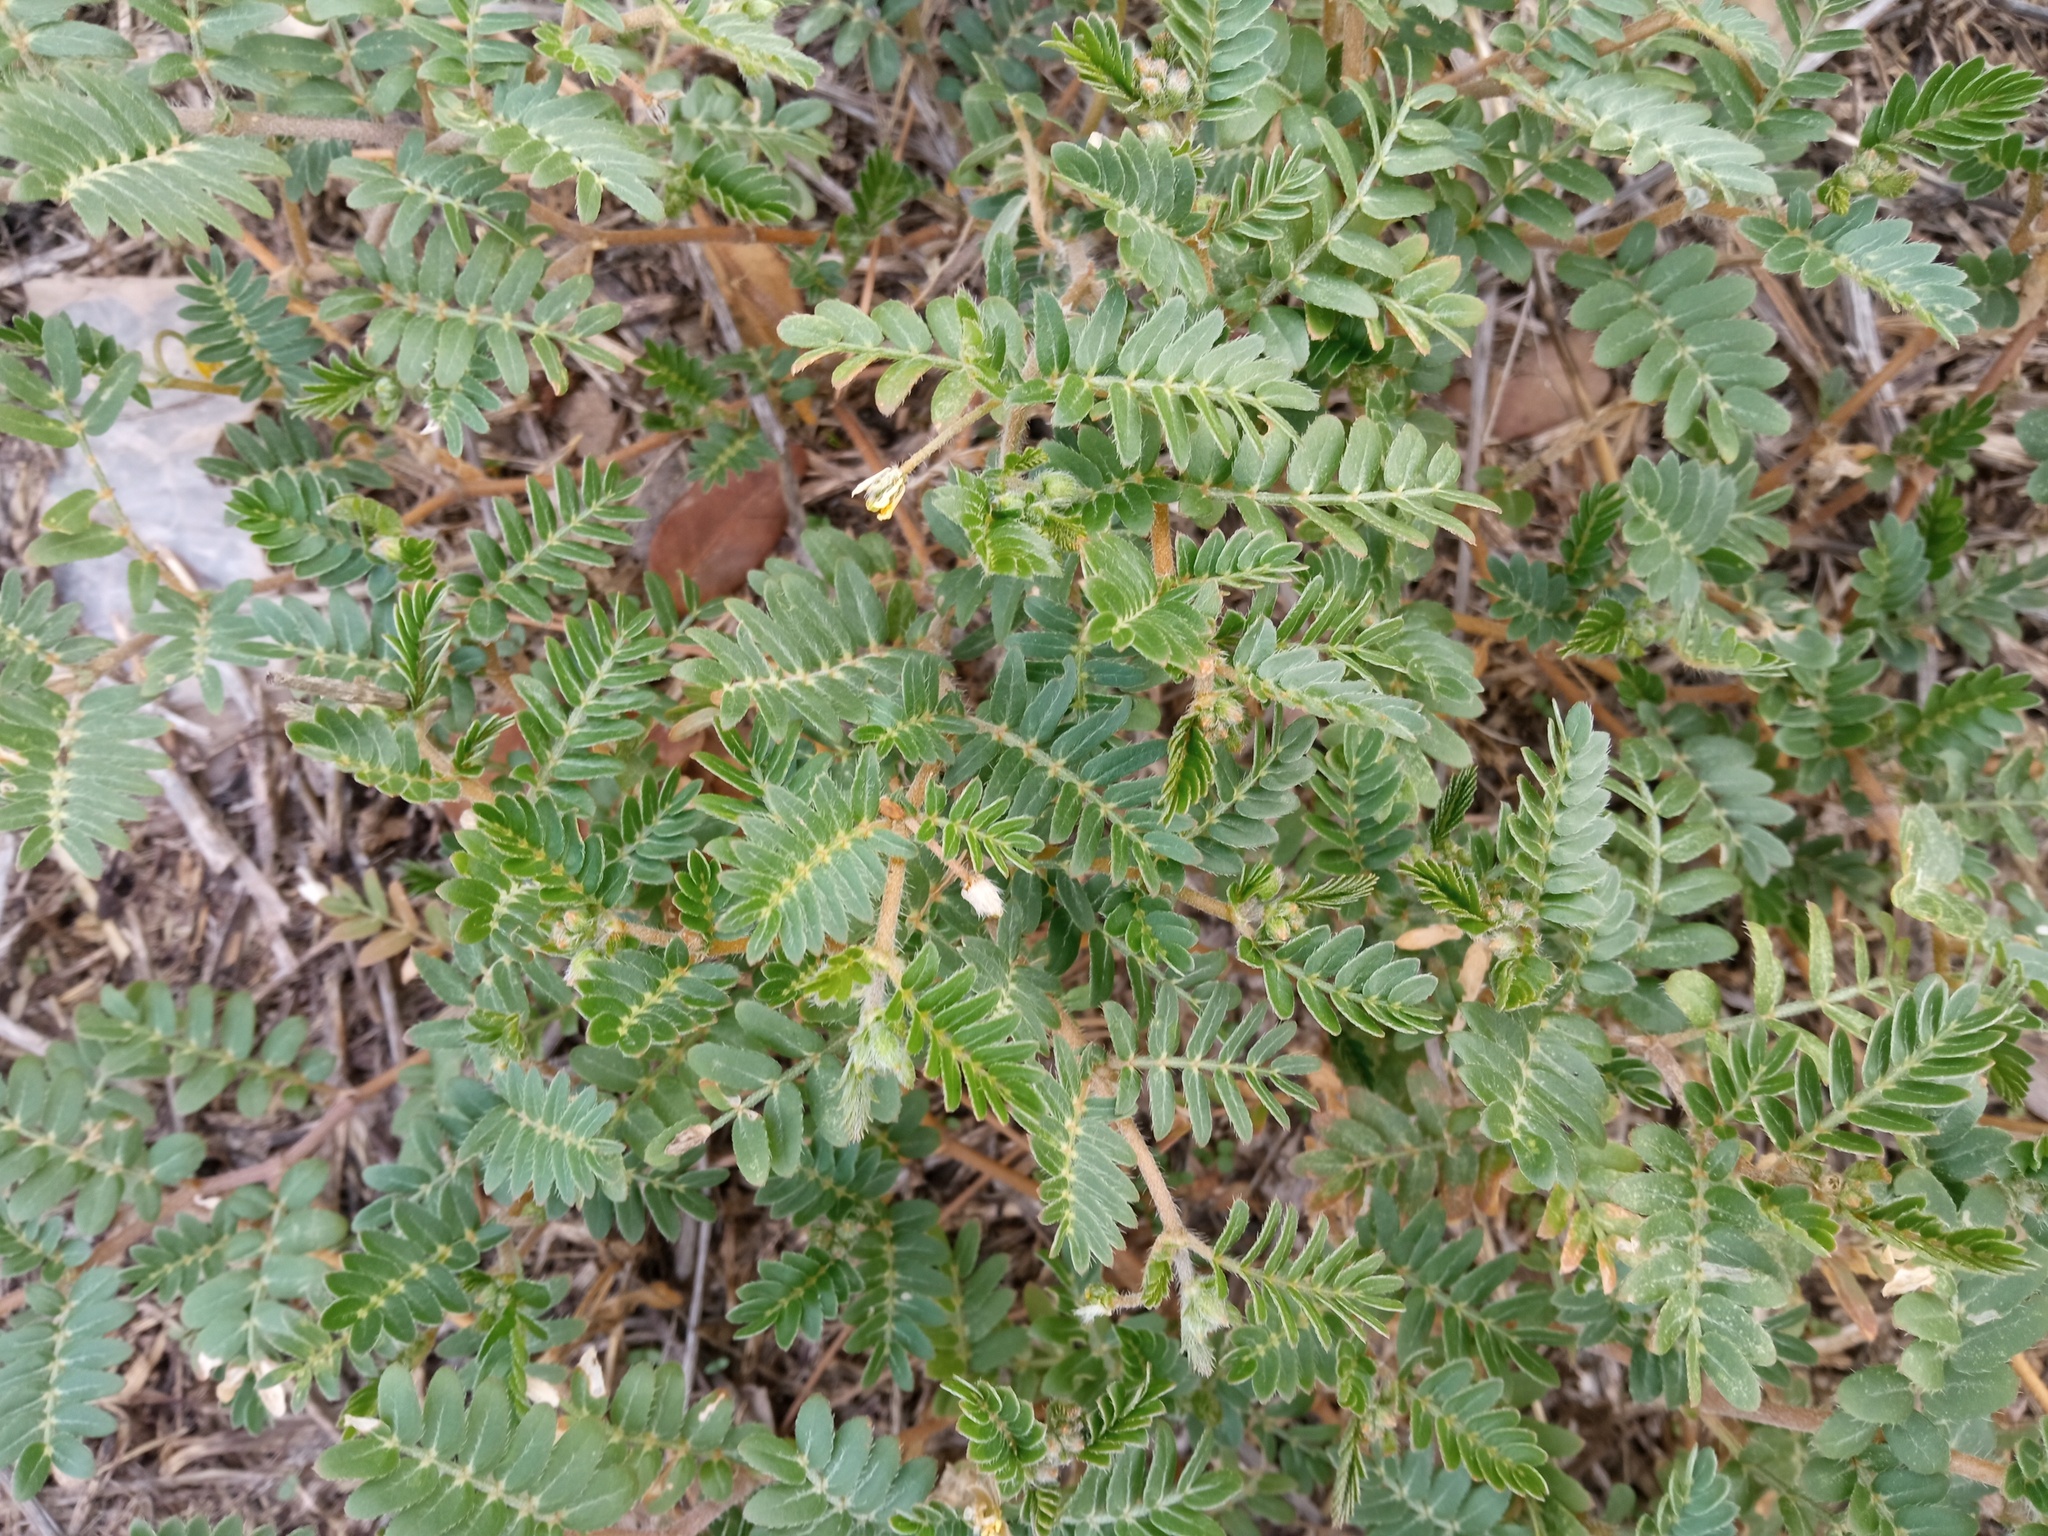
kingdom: Plantae
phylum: Tracheophyta
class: Magnoliopsida
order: Zygophyllales
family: Zygophyllaceae
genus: Tribulus
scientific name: Tribulus terrestris
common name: Puncturevine
